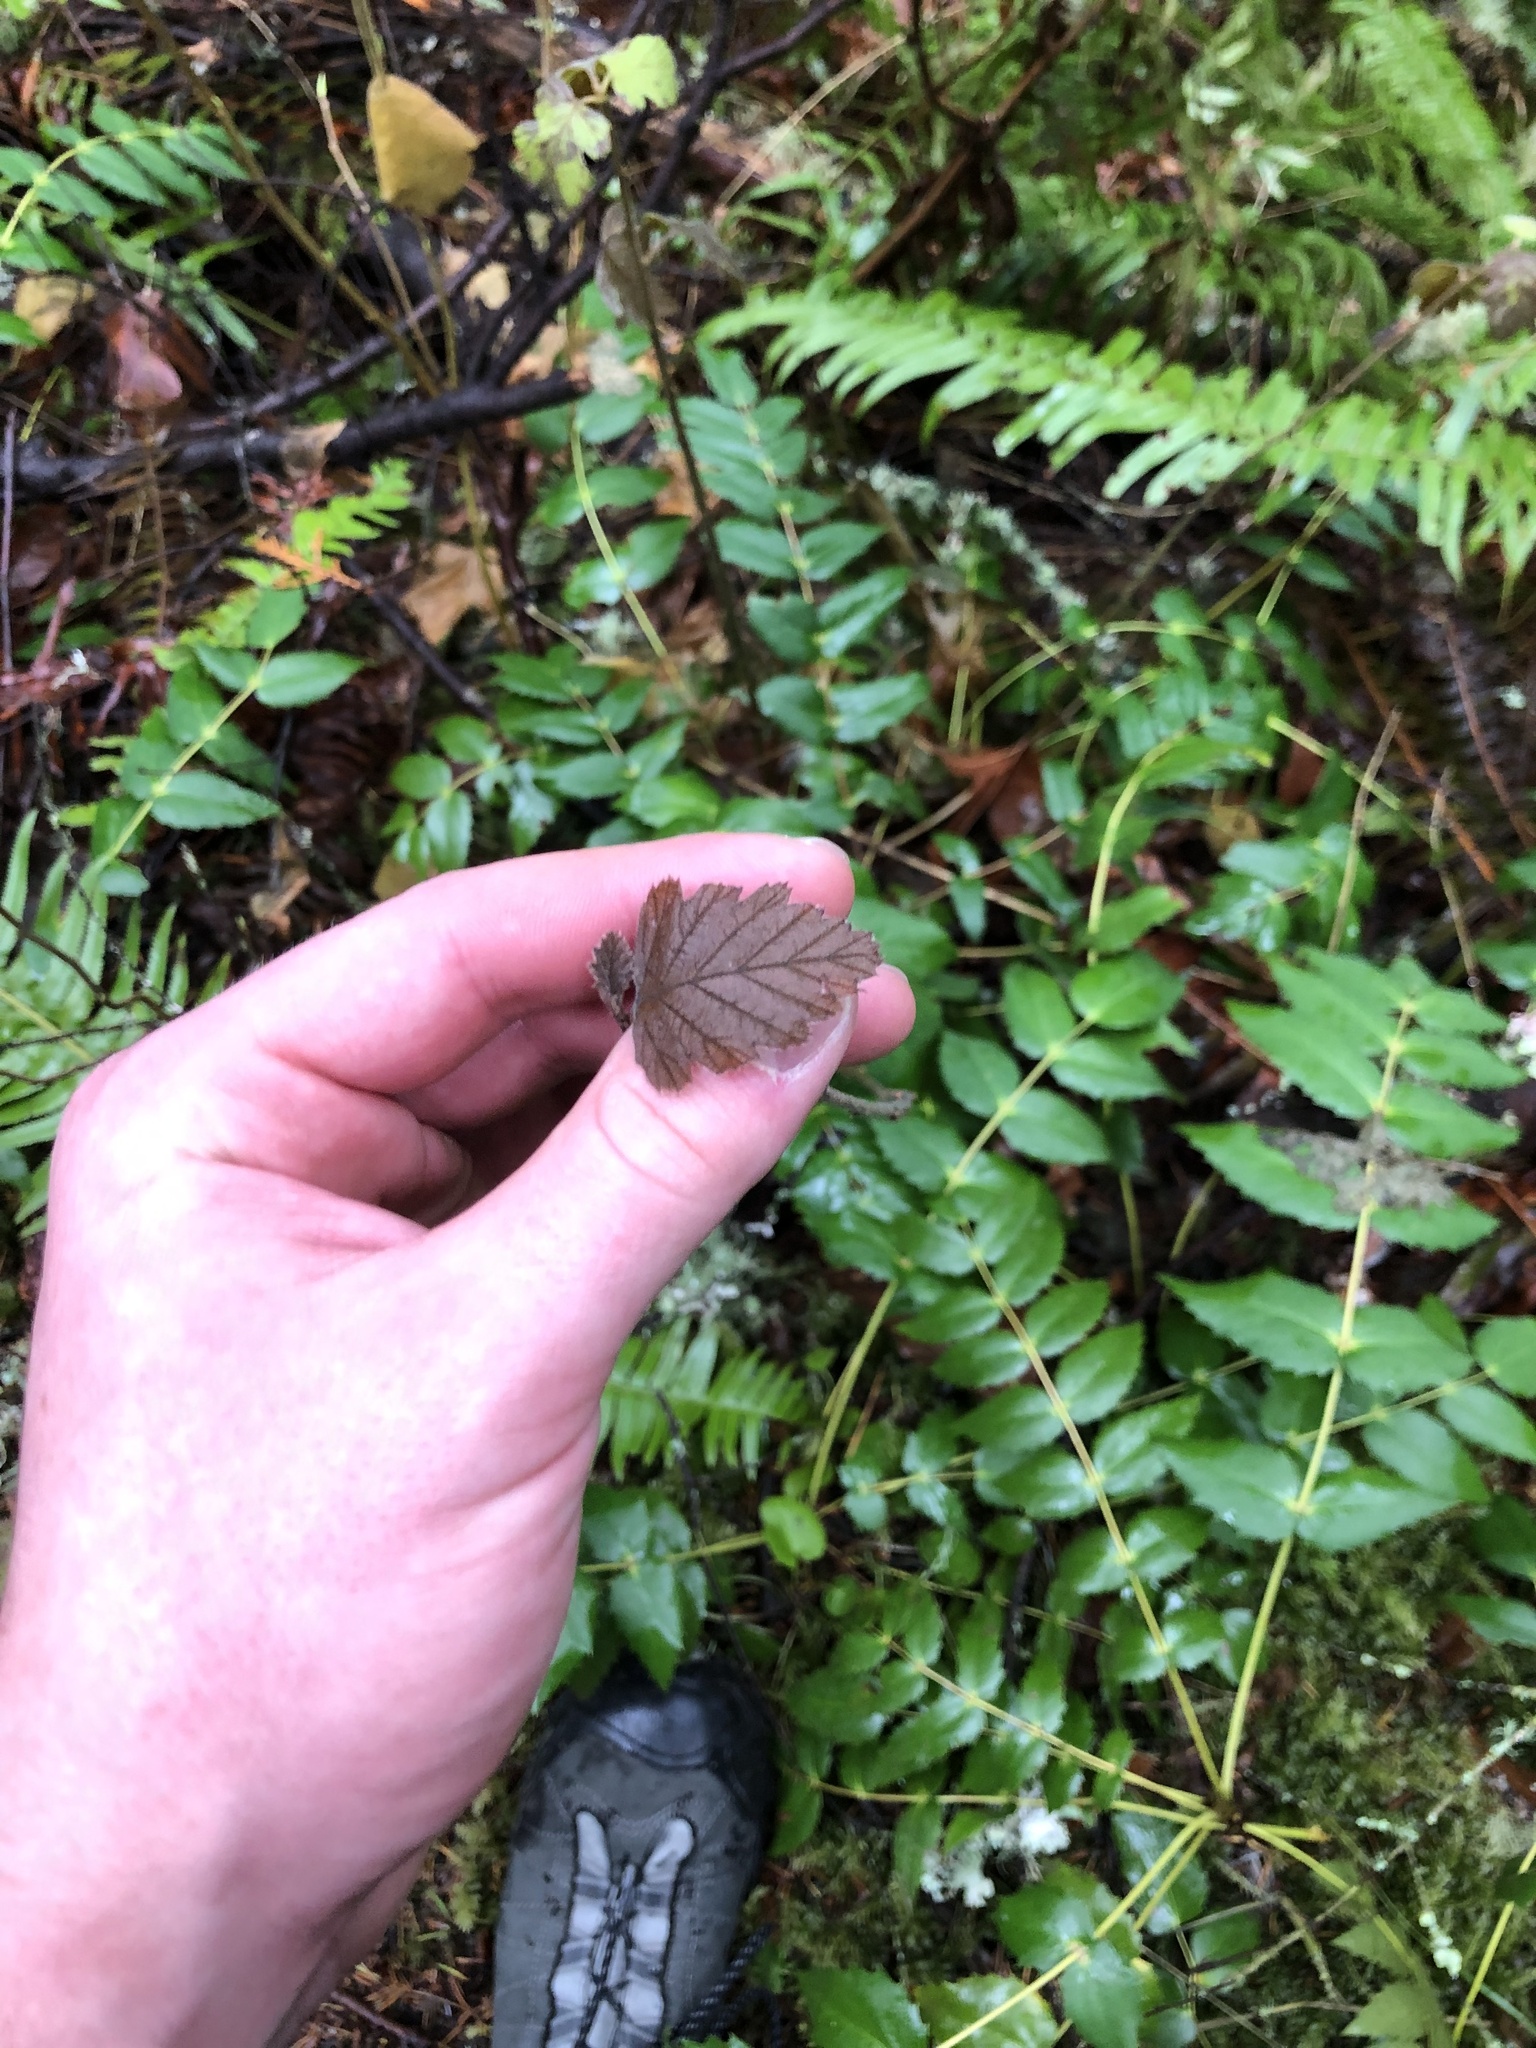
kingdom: Plantae
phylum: Tracheophyta
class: Magnoliopsida
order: Rosales
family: Rosaceae
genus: Holodiscus
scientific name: Holodiscus discolor
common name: Oceanspray
